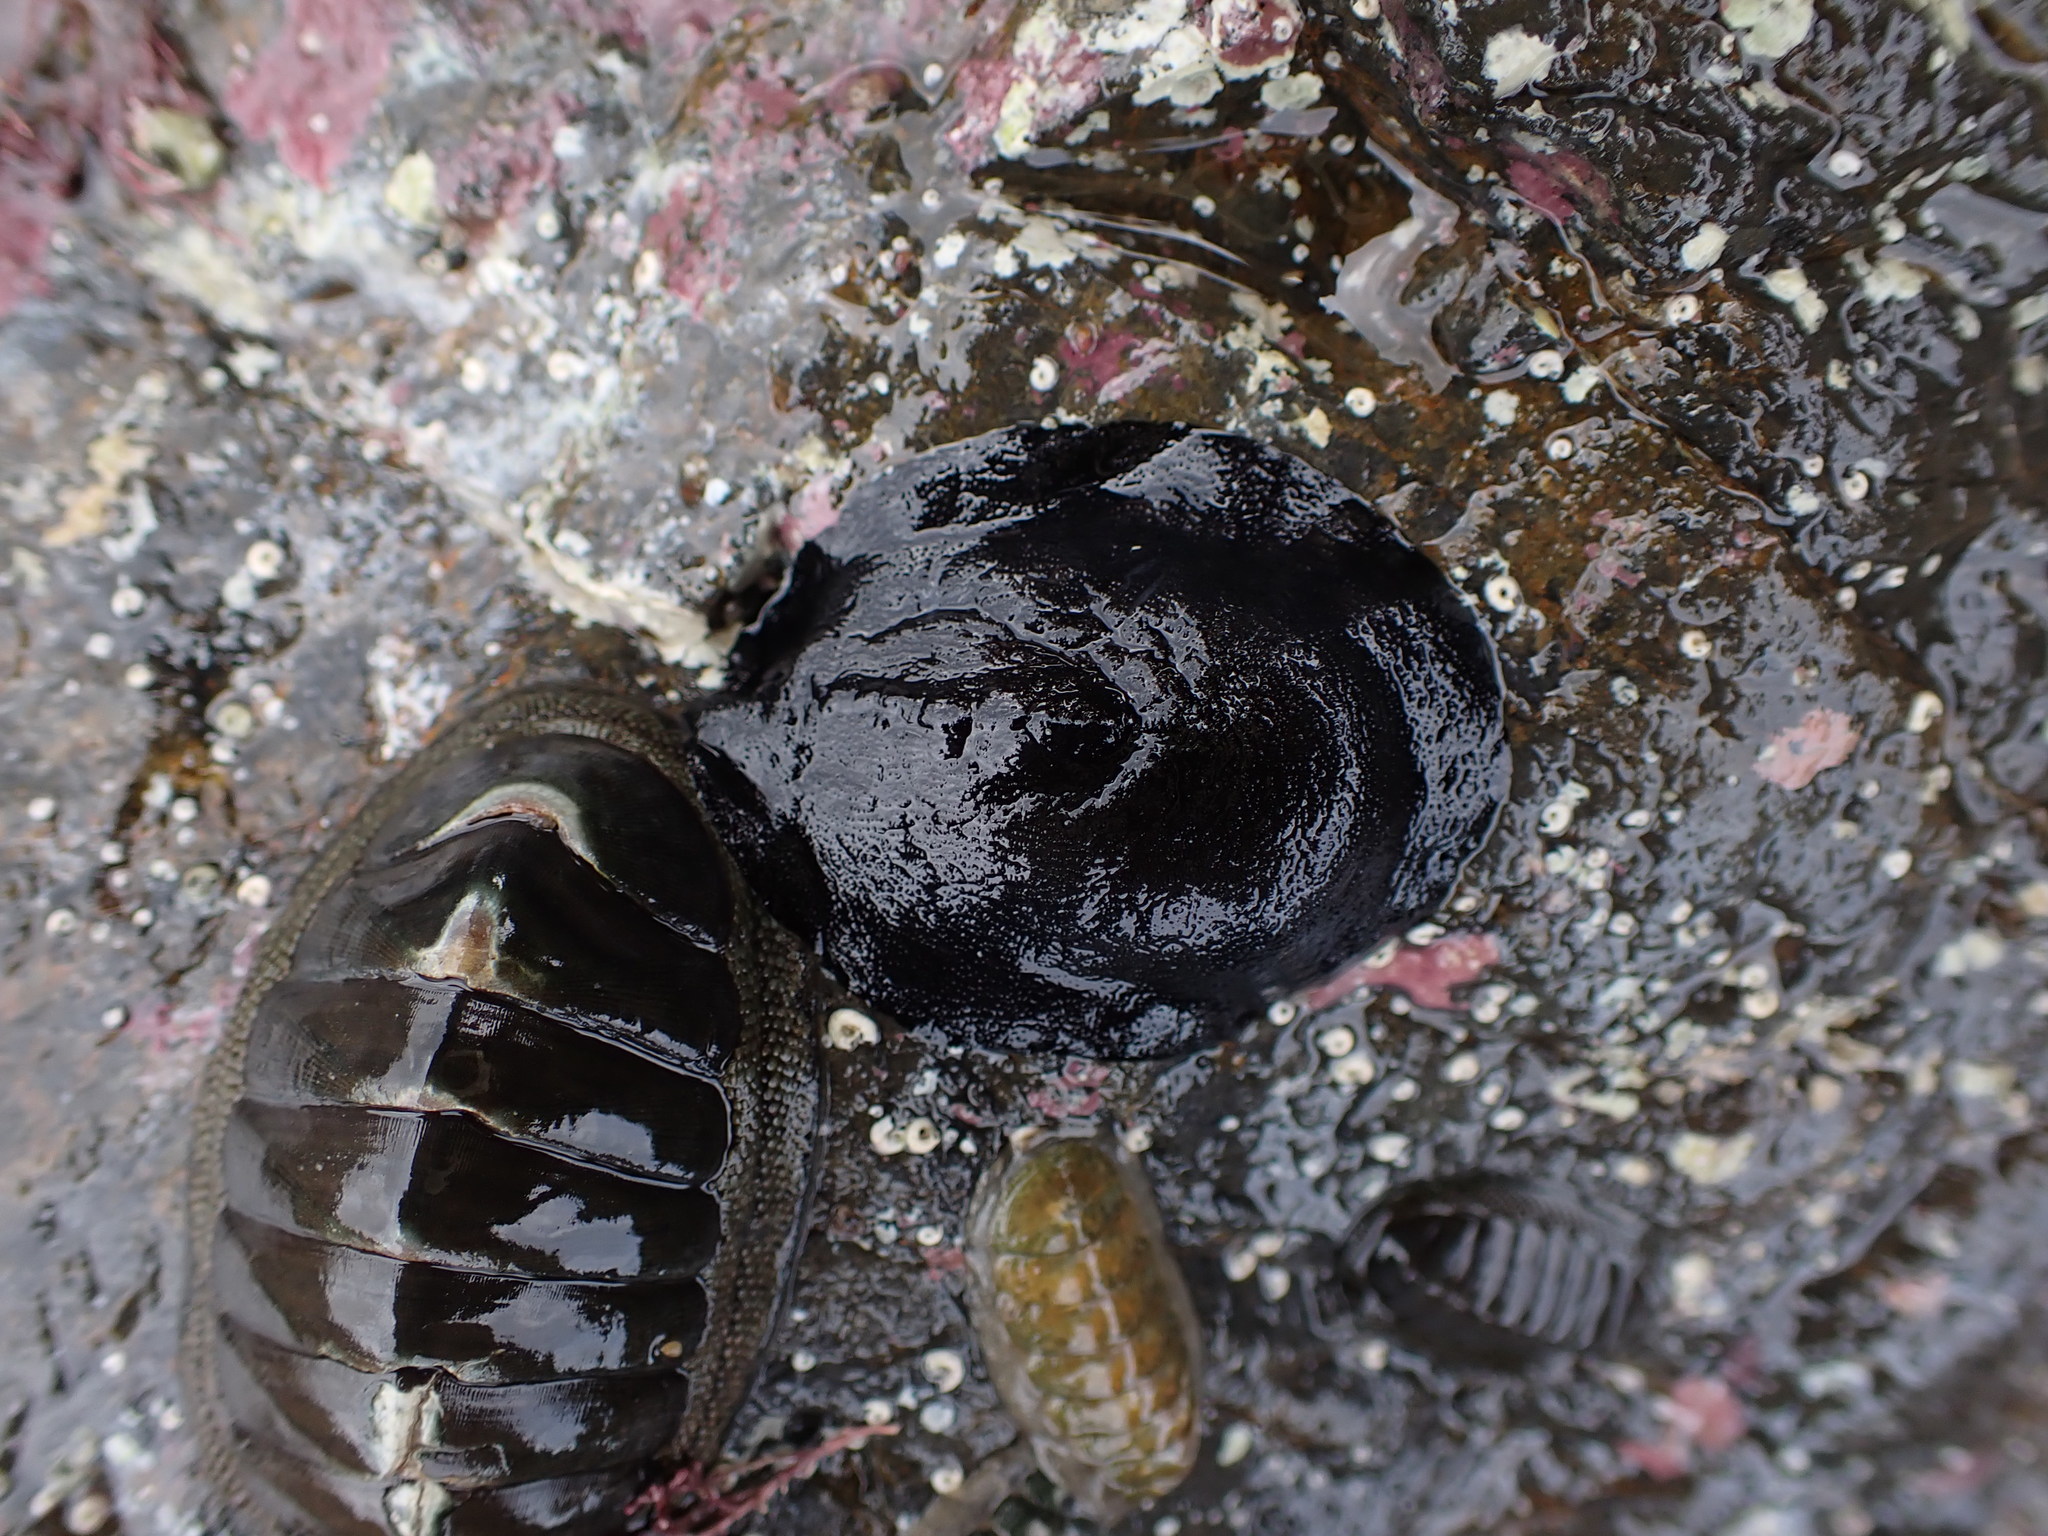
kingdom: Animalia
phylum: Mollusca
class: Gastropoda
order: Lepetellida
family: Fissurellidae
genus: Scutus
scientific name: Scutus breviculus
